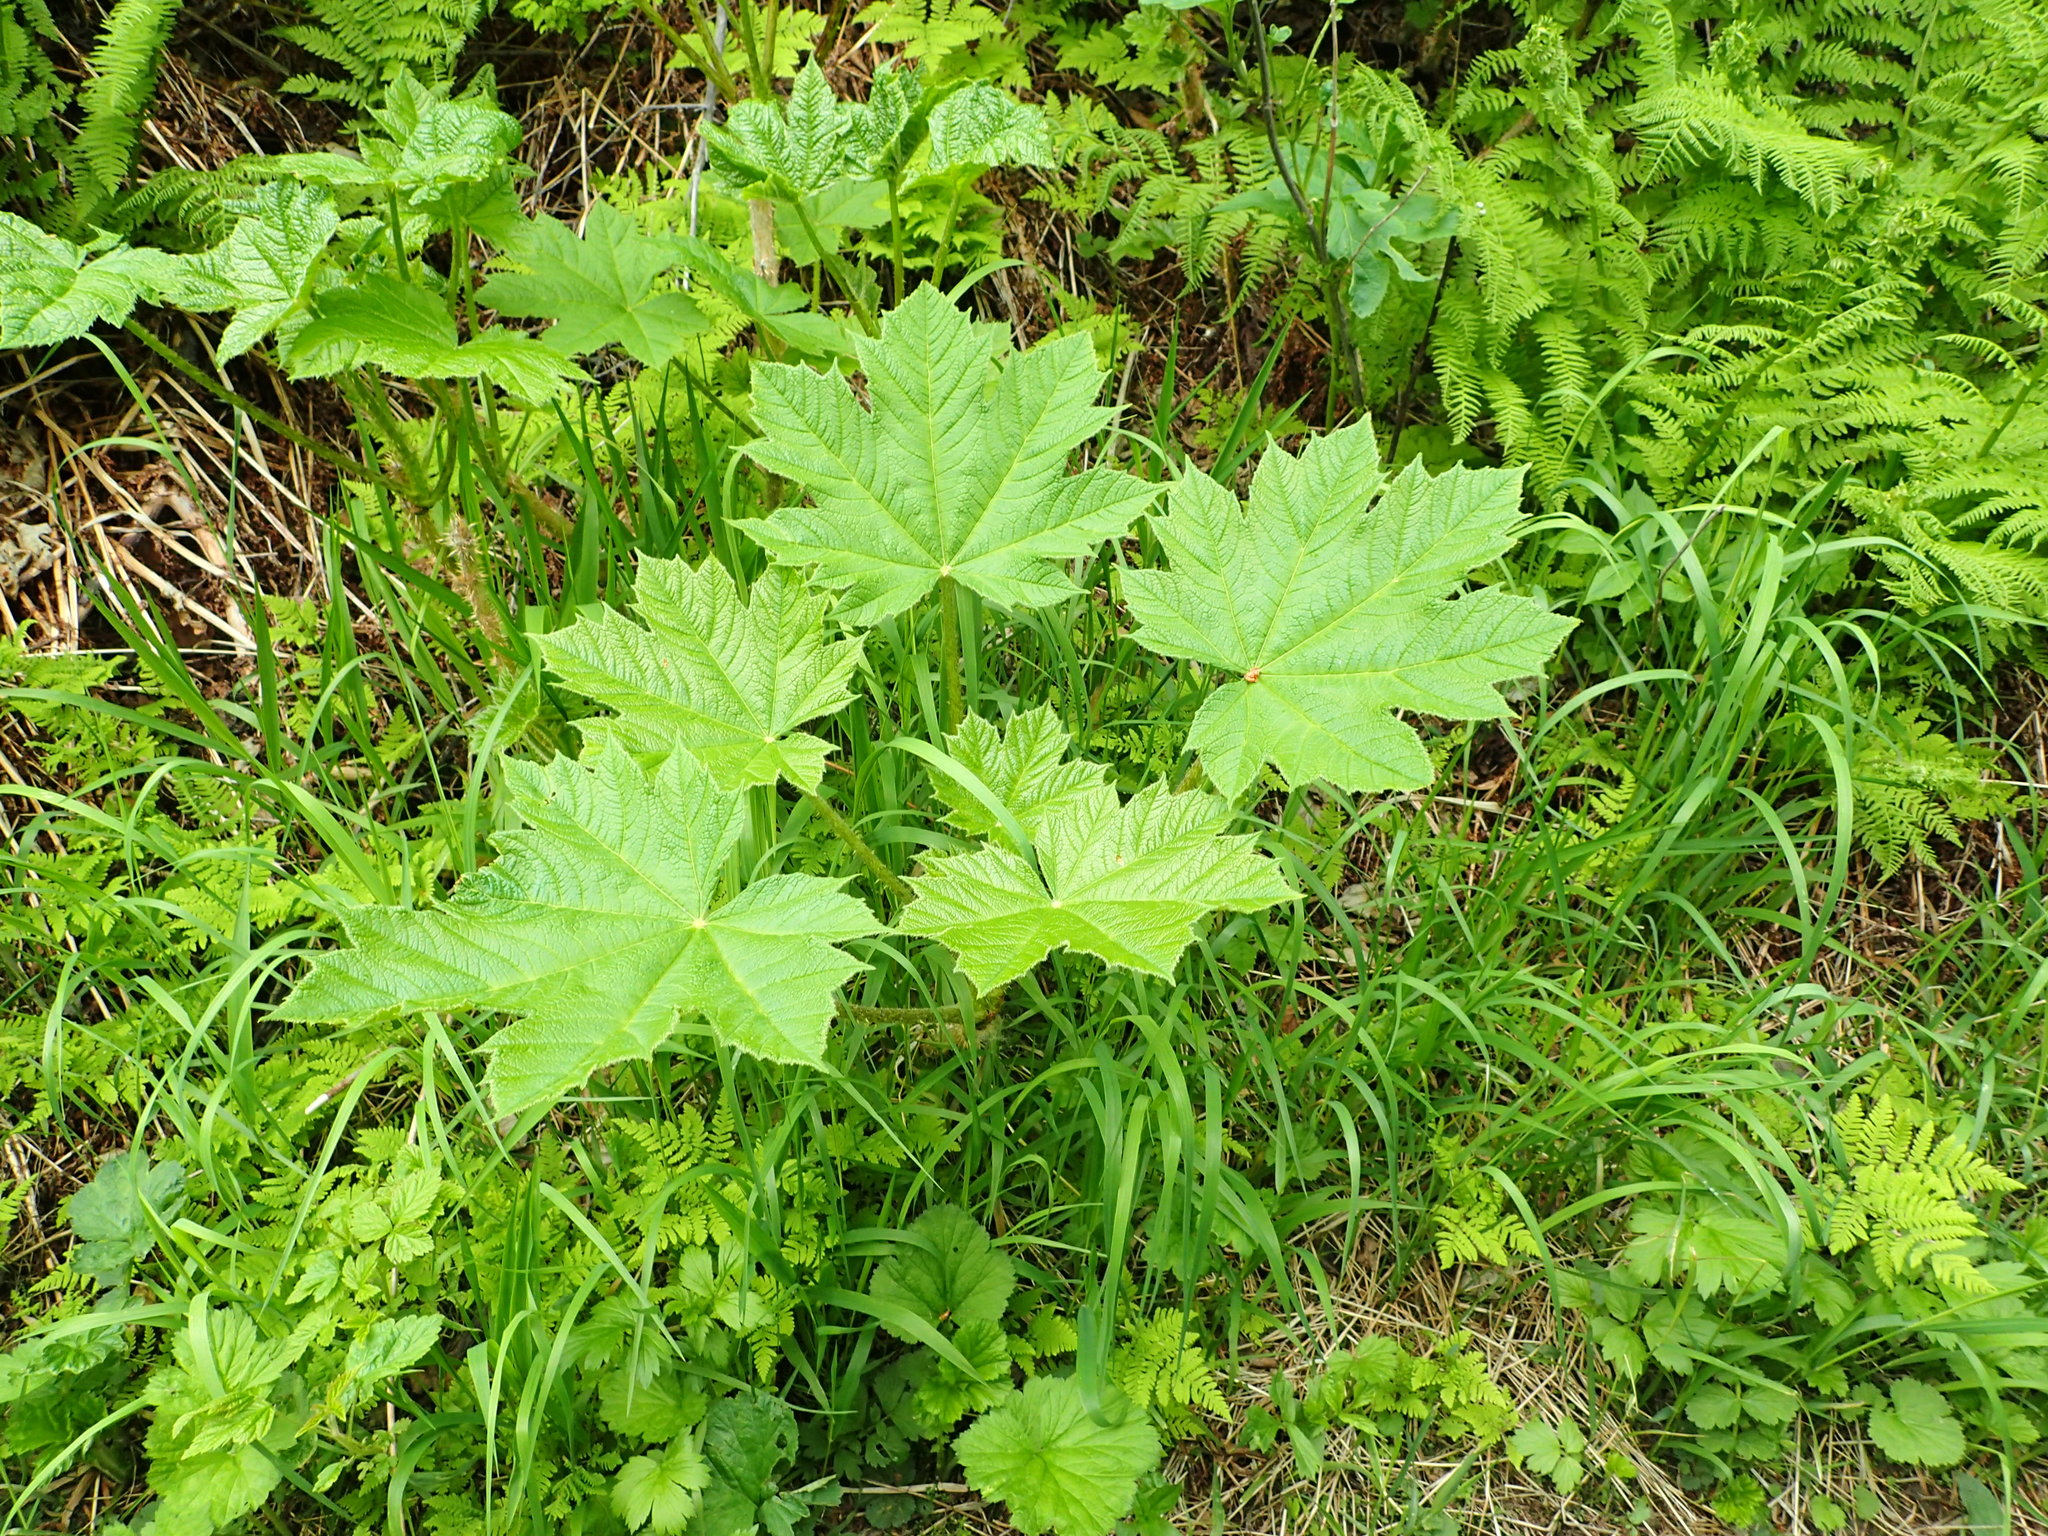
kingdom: Plantae
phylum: Tracheophyta
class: Magnoliopsida
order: Apiales
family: Araliaceae
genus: Oplopanax
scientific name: Oplopanax horridus
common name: Devil's walking-stick
